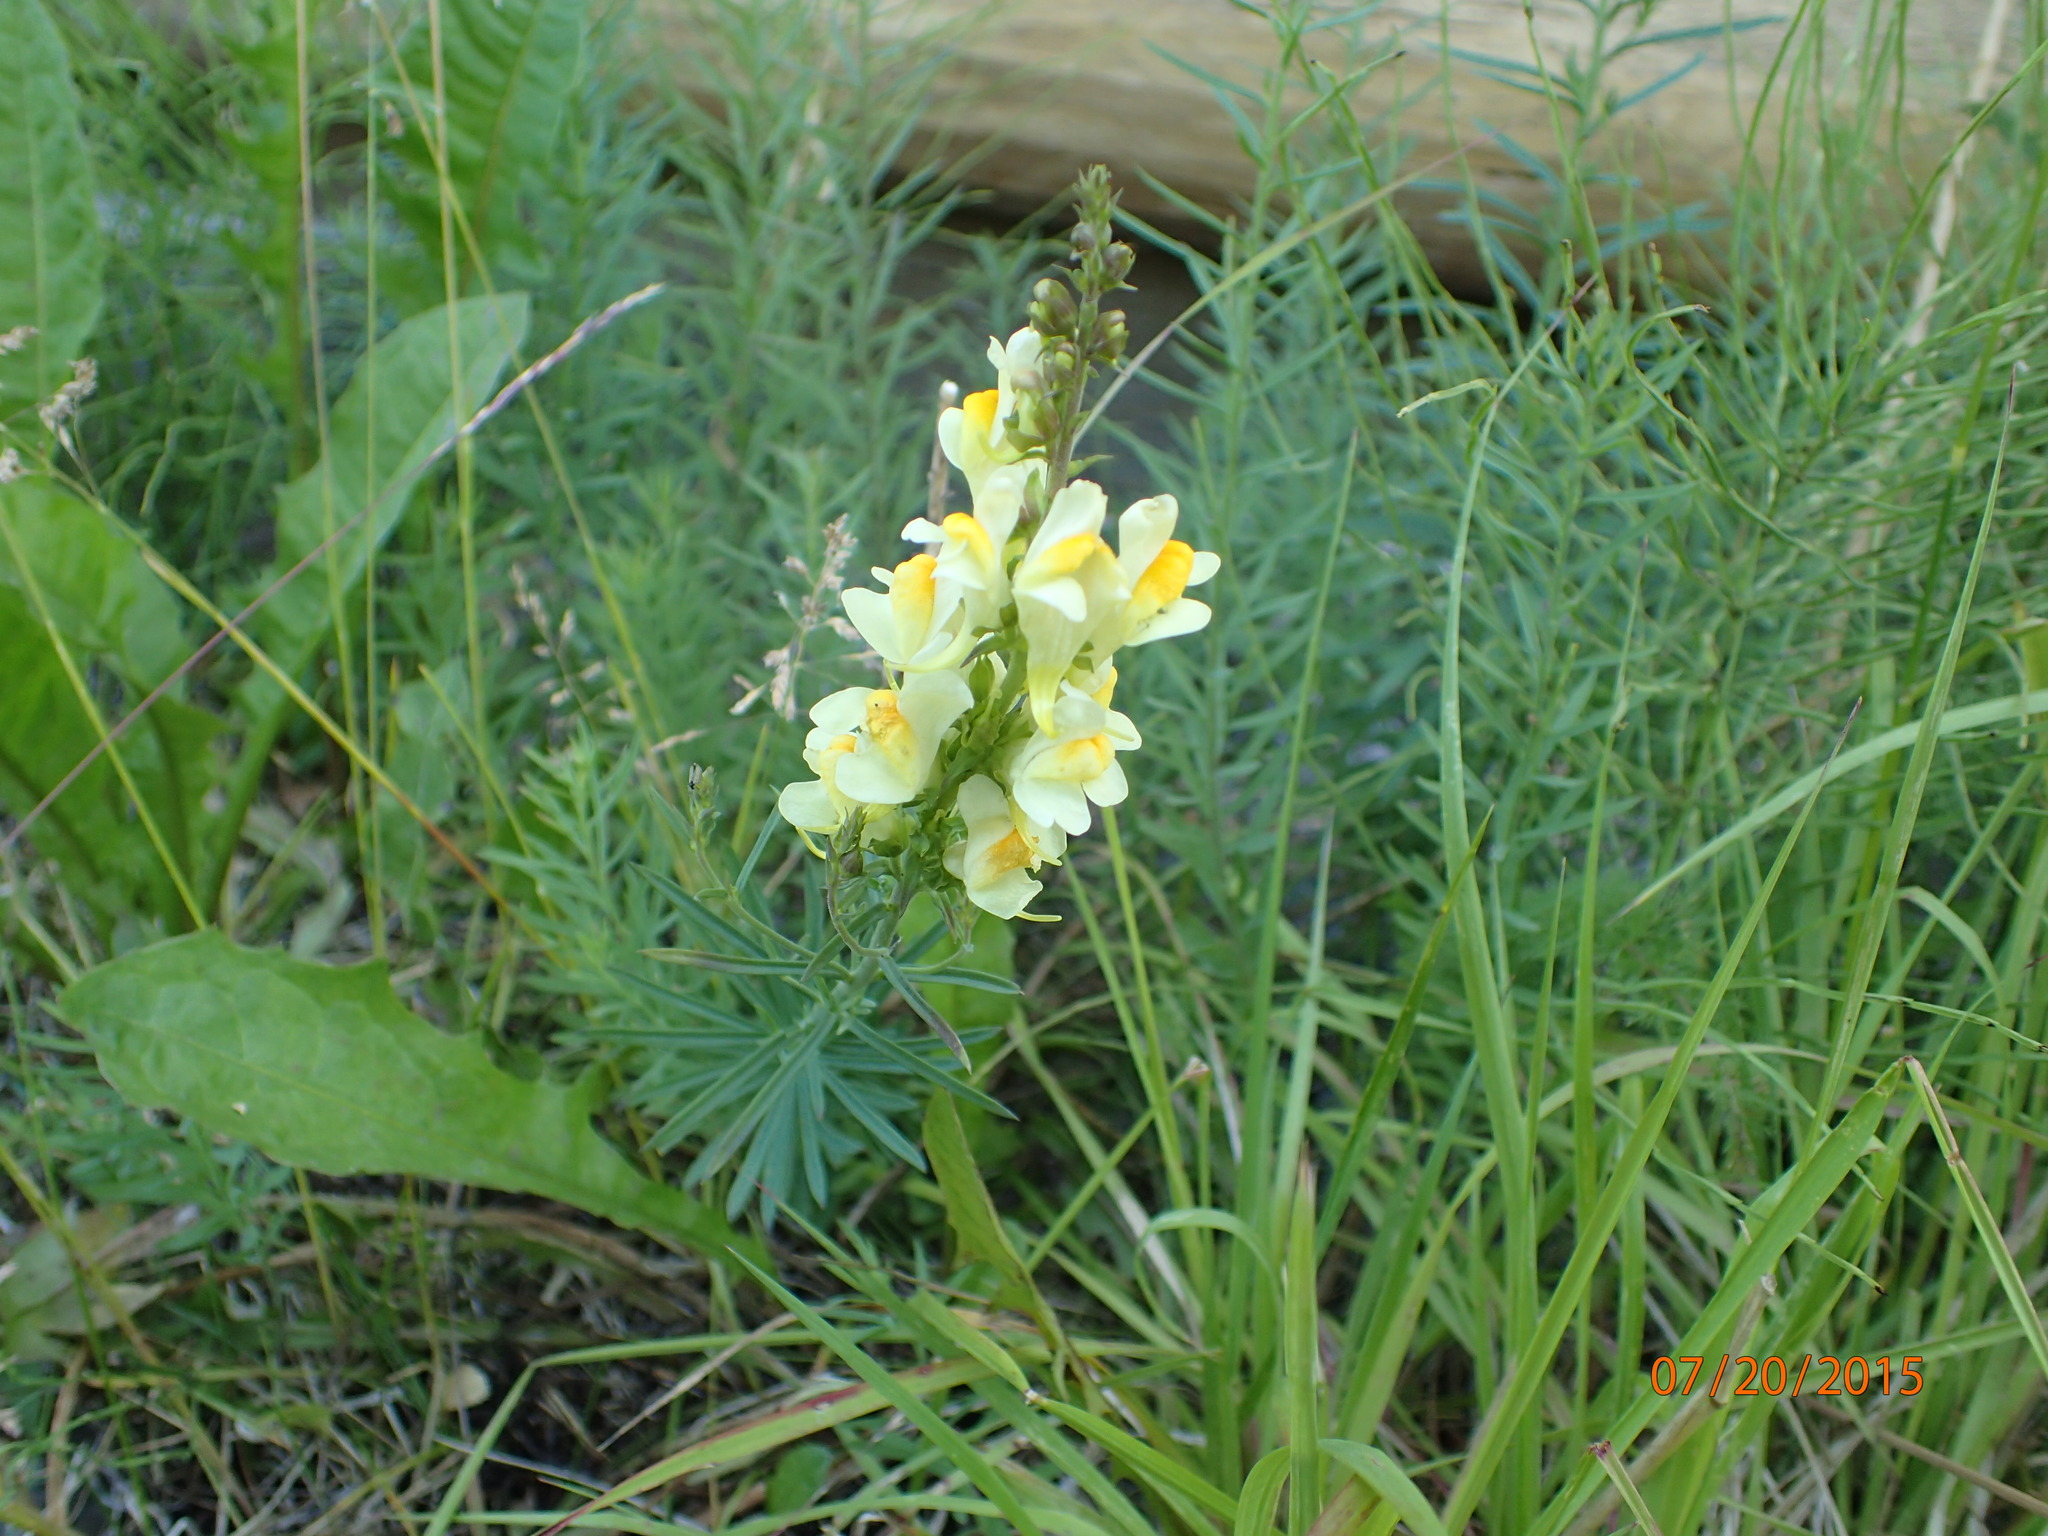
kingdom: Plantae
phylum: Tracheophyta
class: Magnoliopsida
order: Lamiales
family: Plantaginaceae
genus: Linaria
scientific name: Linaria vulgaris
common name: Butter and eggs
